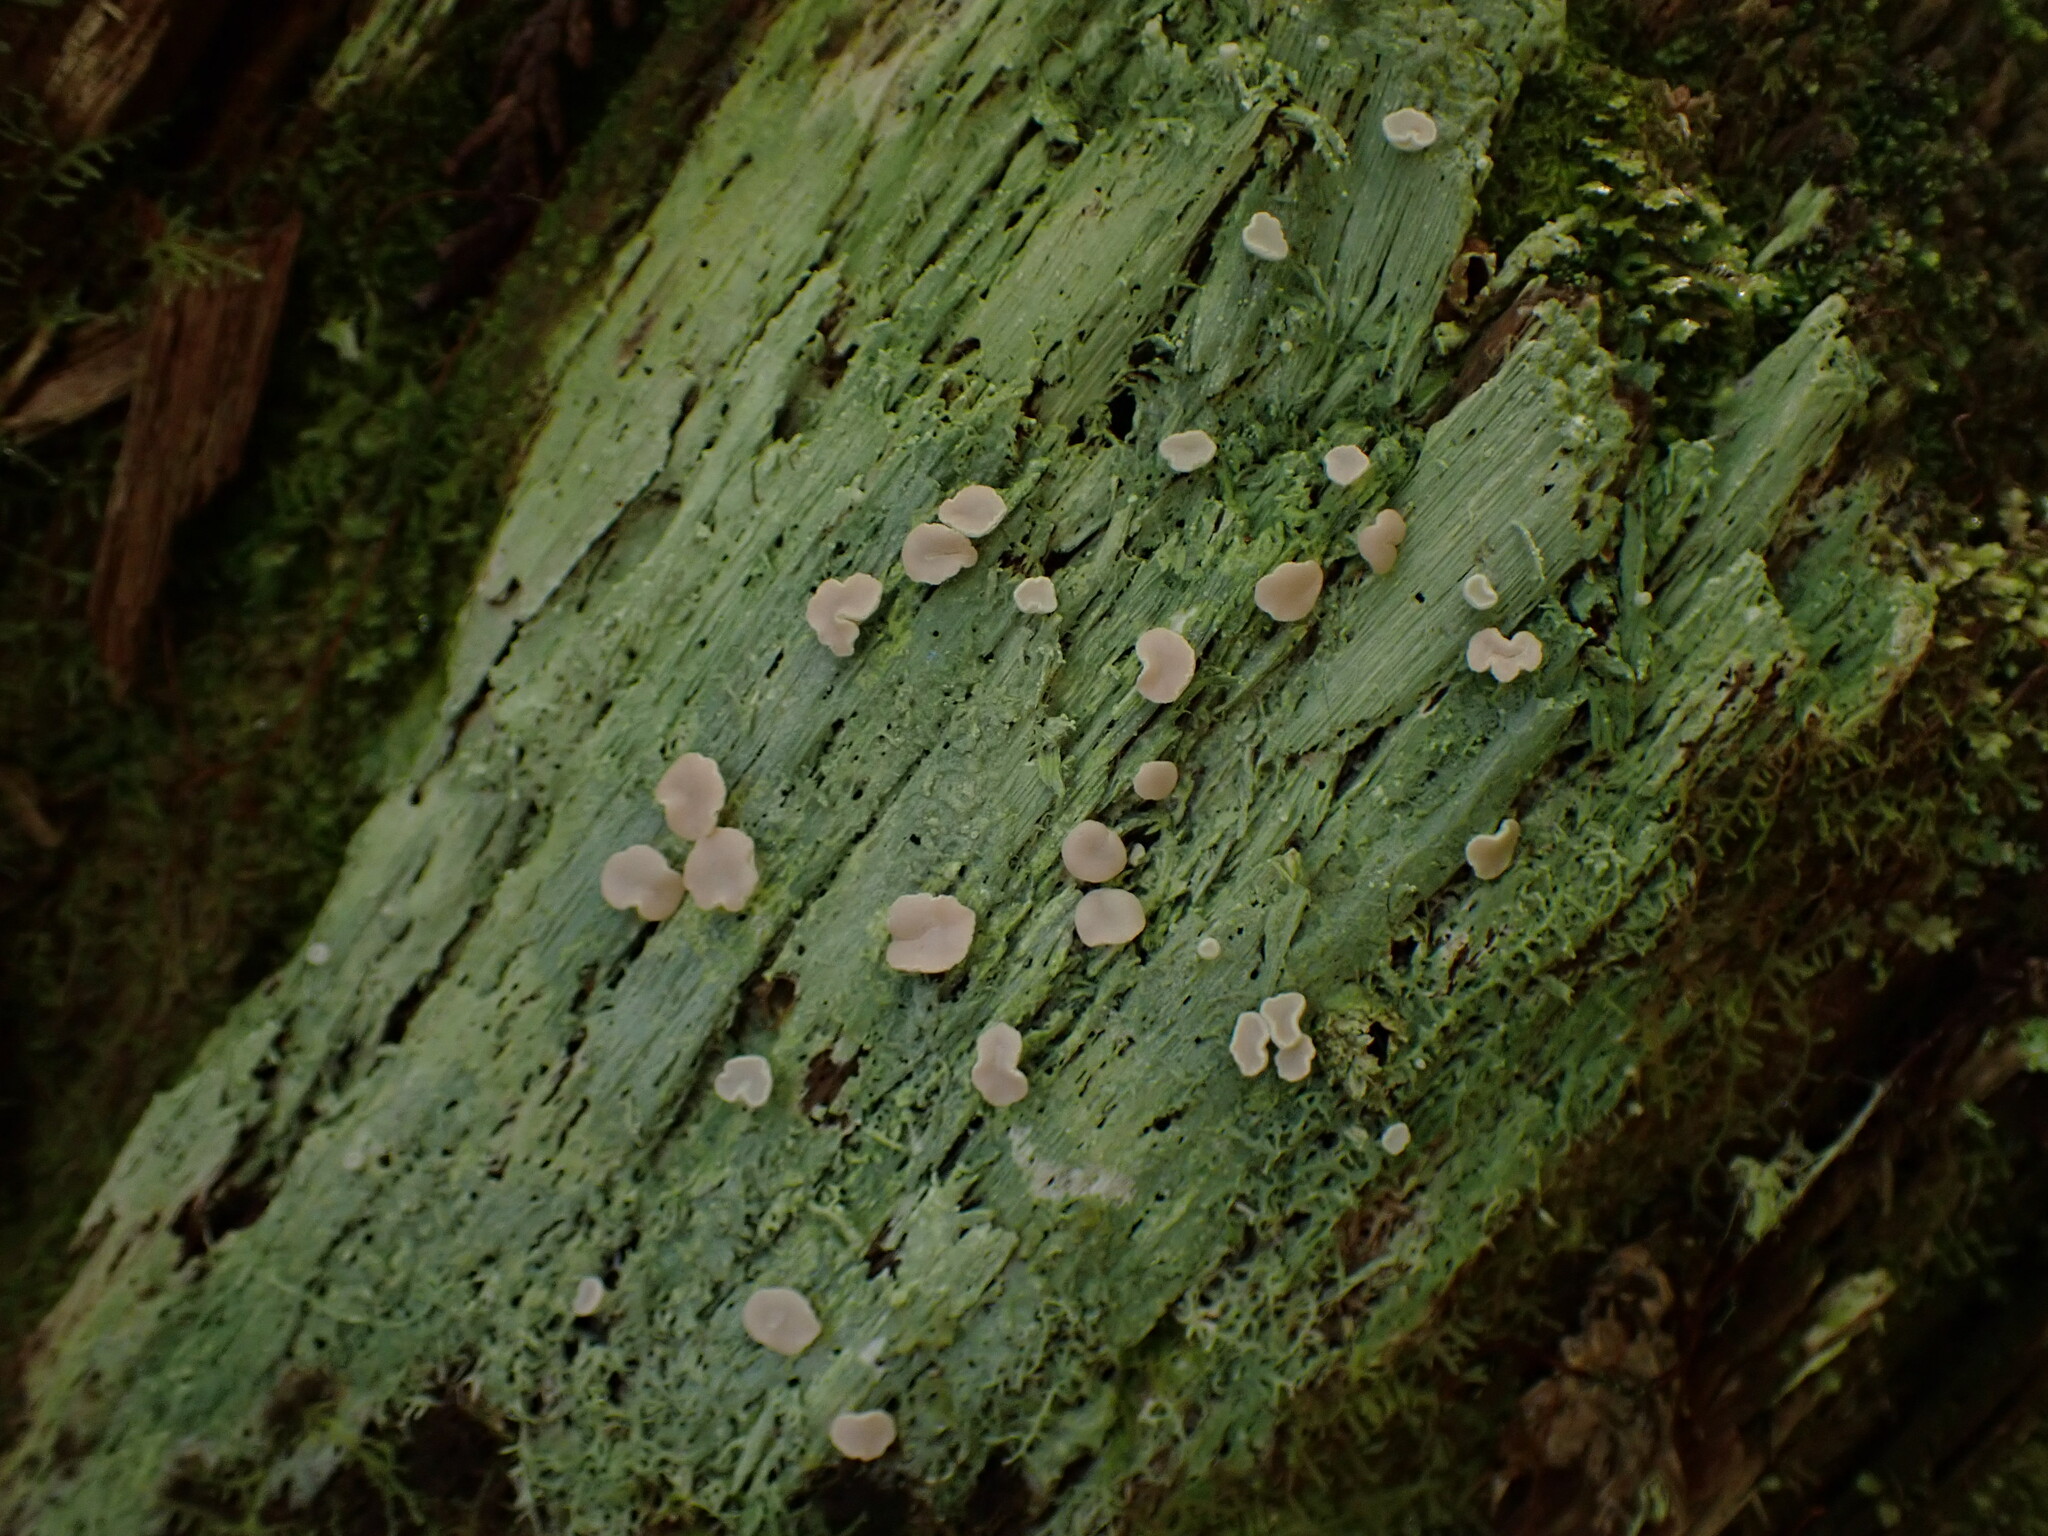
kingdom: Fungi
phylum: Ascomycota
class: Lecanoromycetes
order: Pertusariales
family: Icmadophilaceae
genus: Icmadophila
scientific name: Icmadophila ericetorum
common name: Candy lichen
